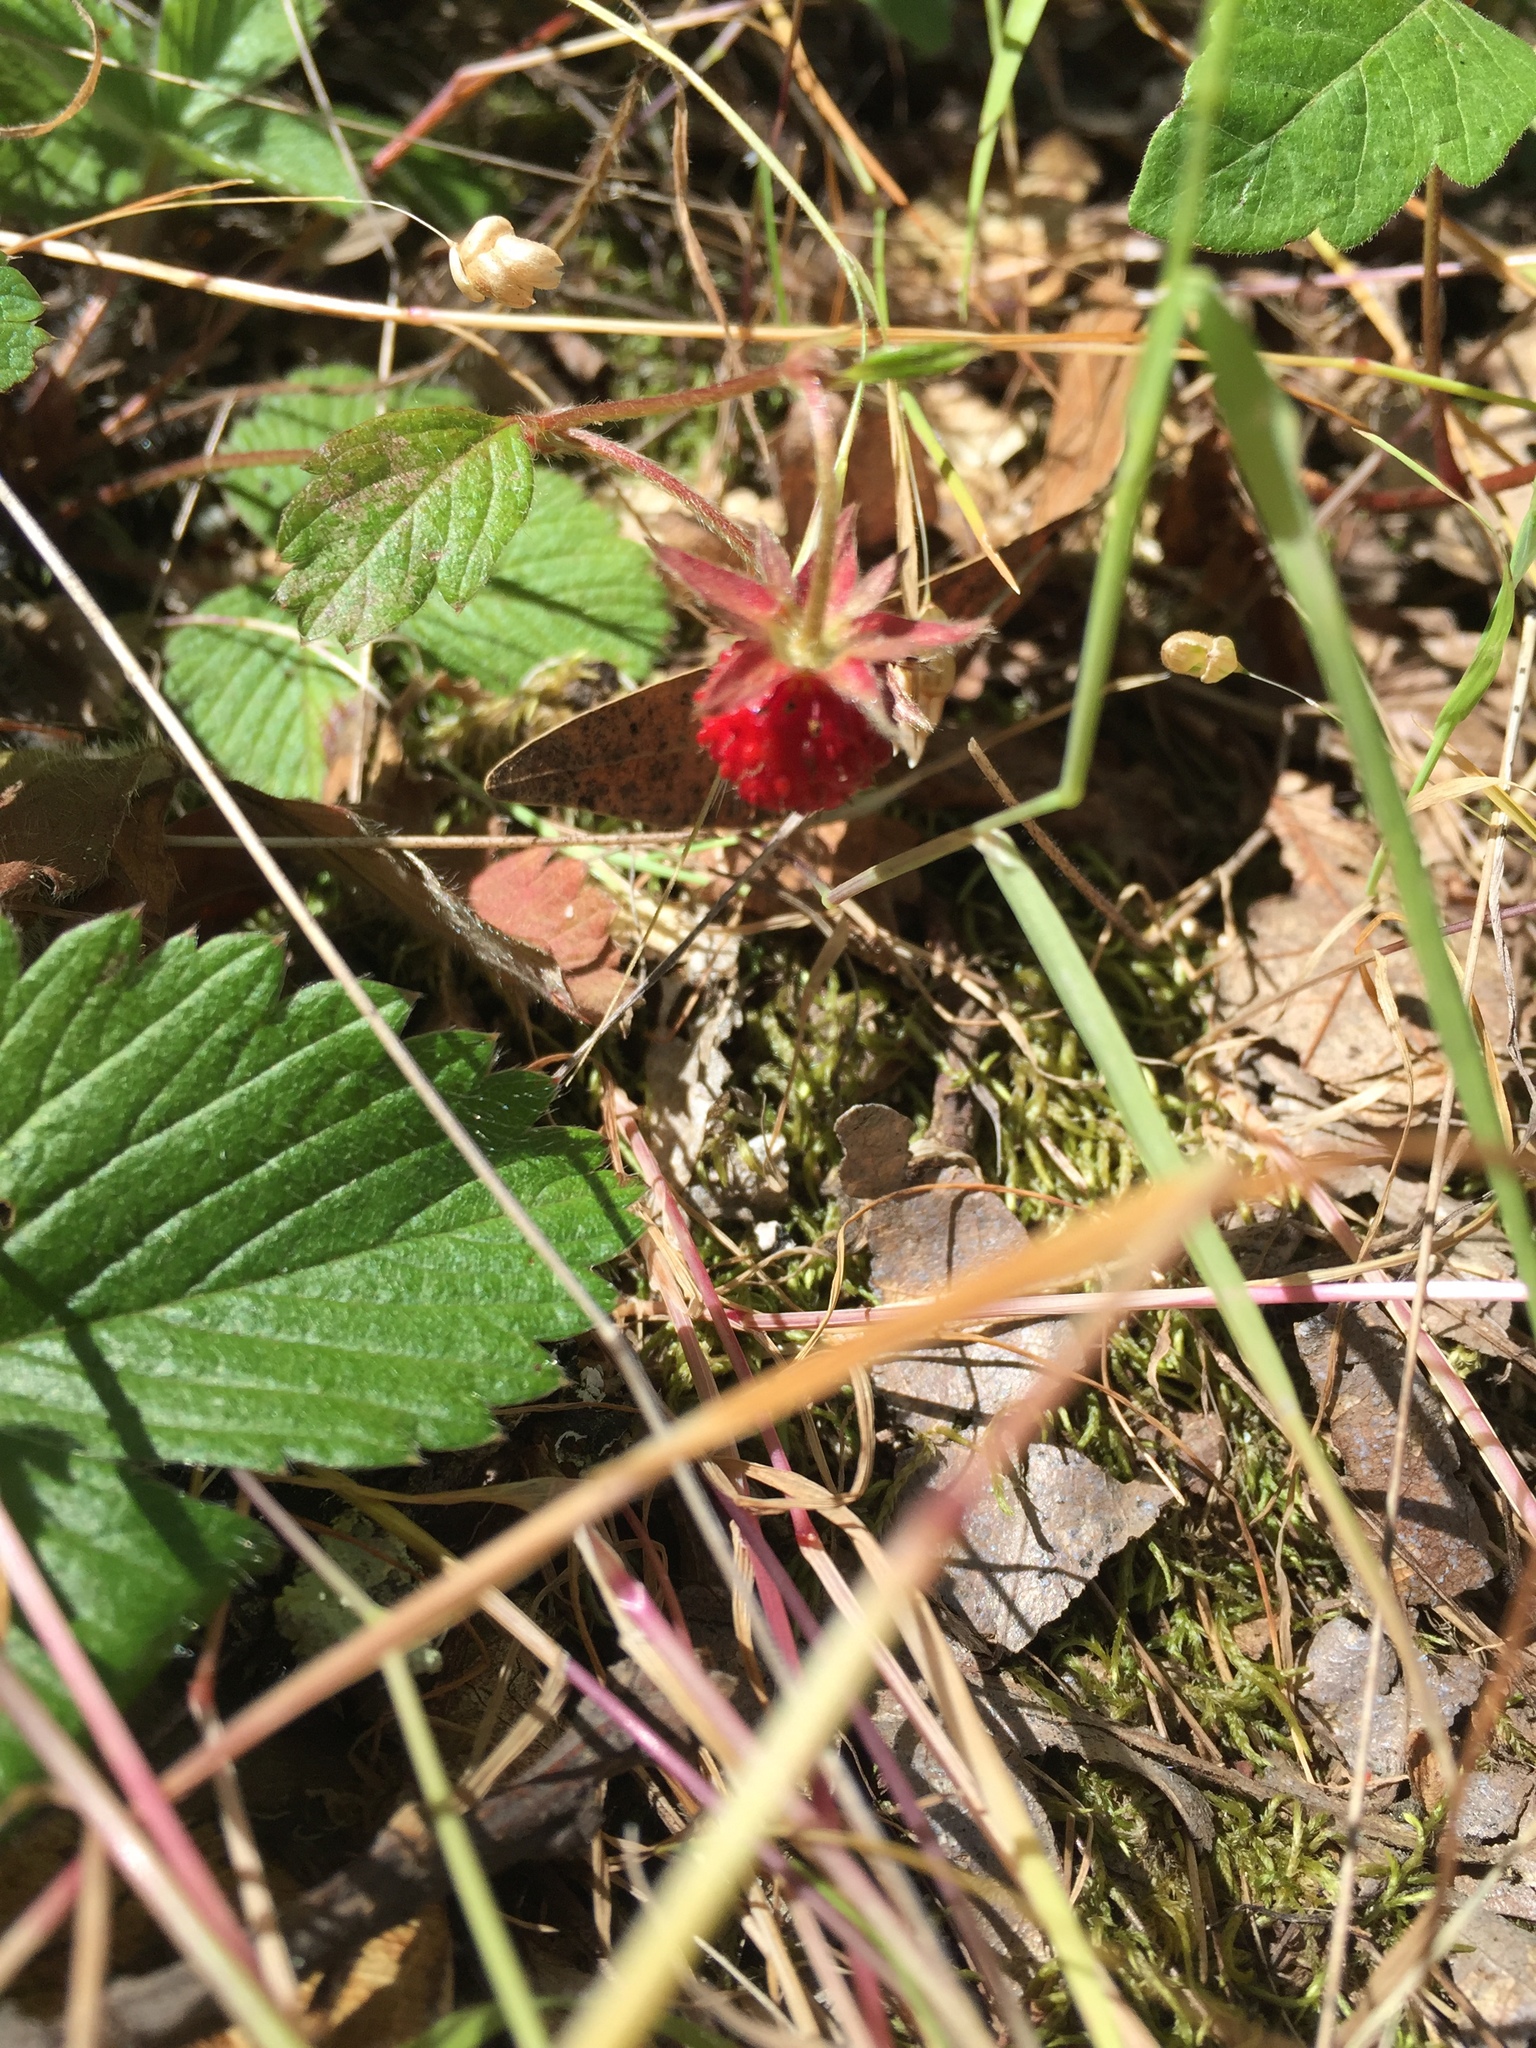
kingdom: Plantae
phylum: Tracheophyta
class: Magnoliopsida
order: Rosales
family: Rosaceae
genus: Fragaria
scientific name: Fragaria vesca
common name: Wild strawberry
